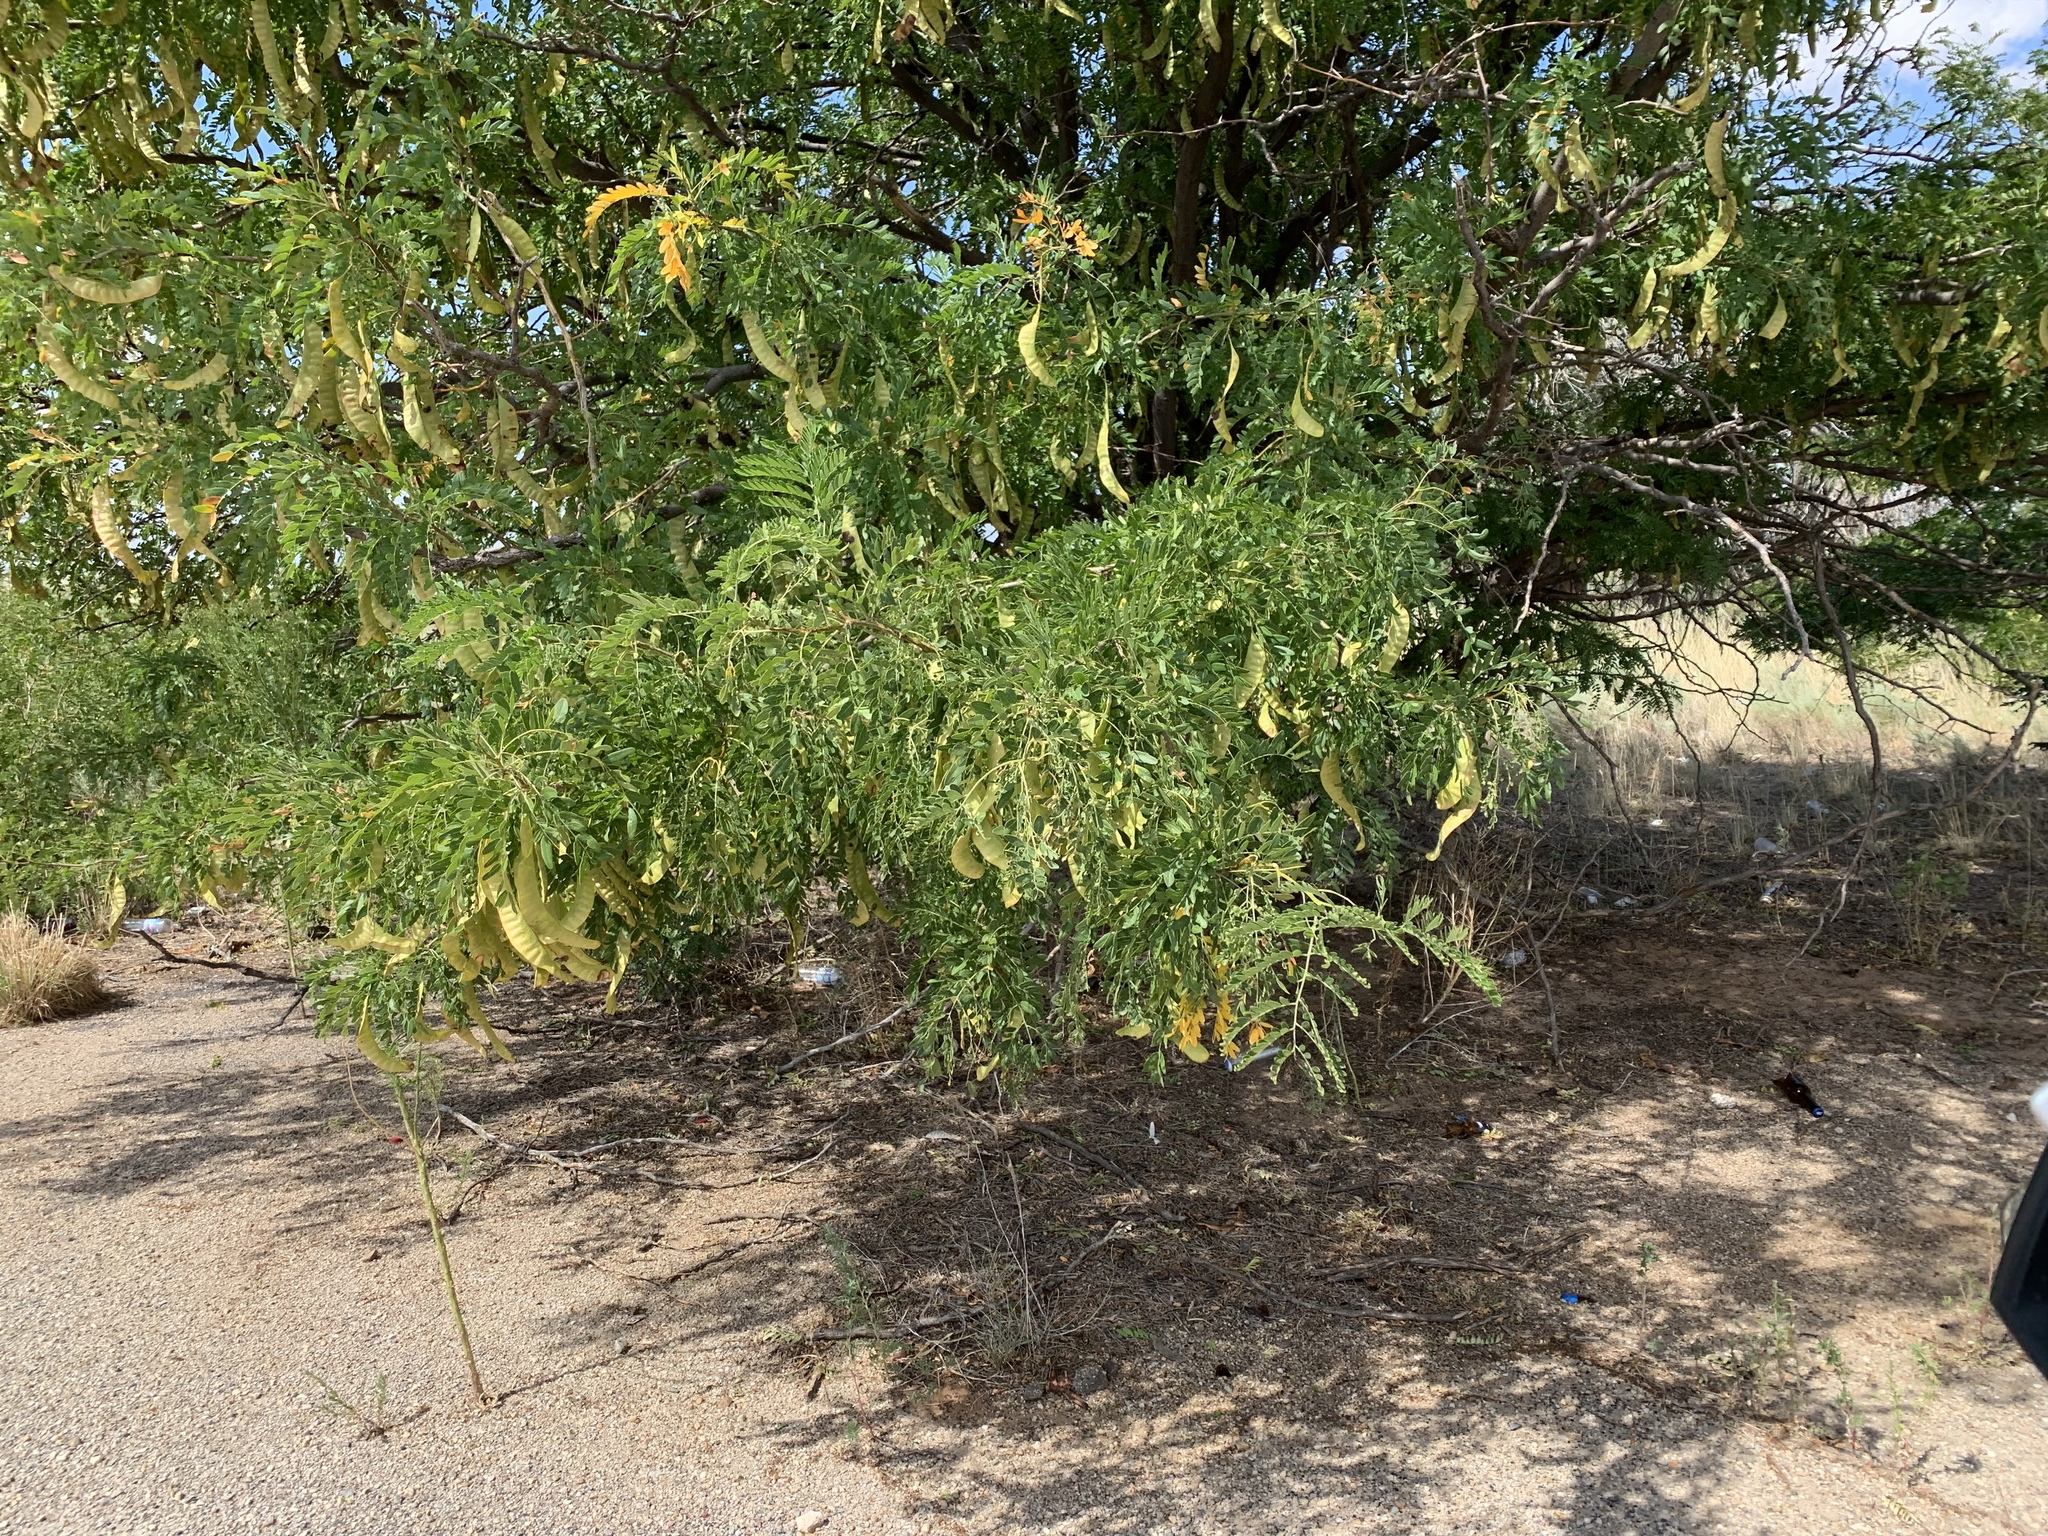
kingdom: Plantae
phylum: Tracheophyta
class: Magnoliopsida
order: Fabales
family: Fabaceae
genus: Gleditsia
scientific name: Gleditsia triacanthos
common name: Common honeylocust
